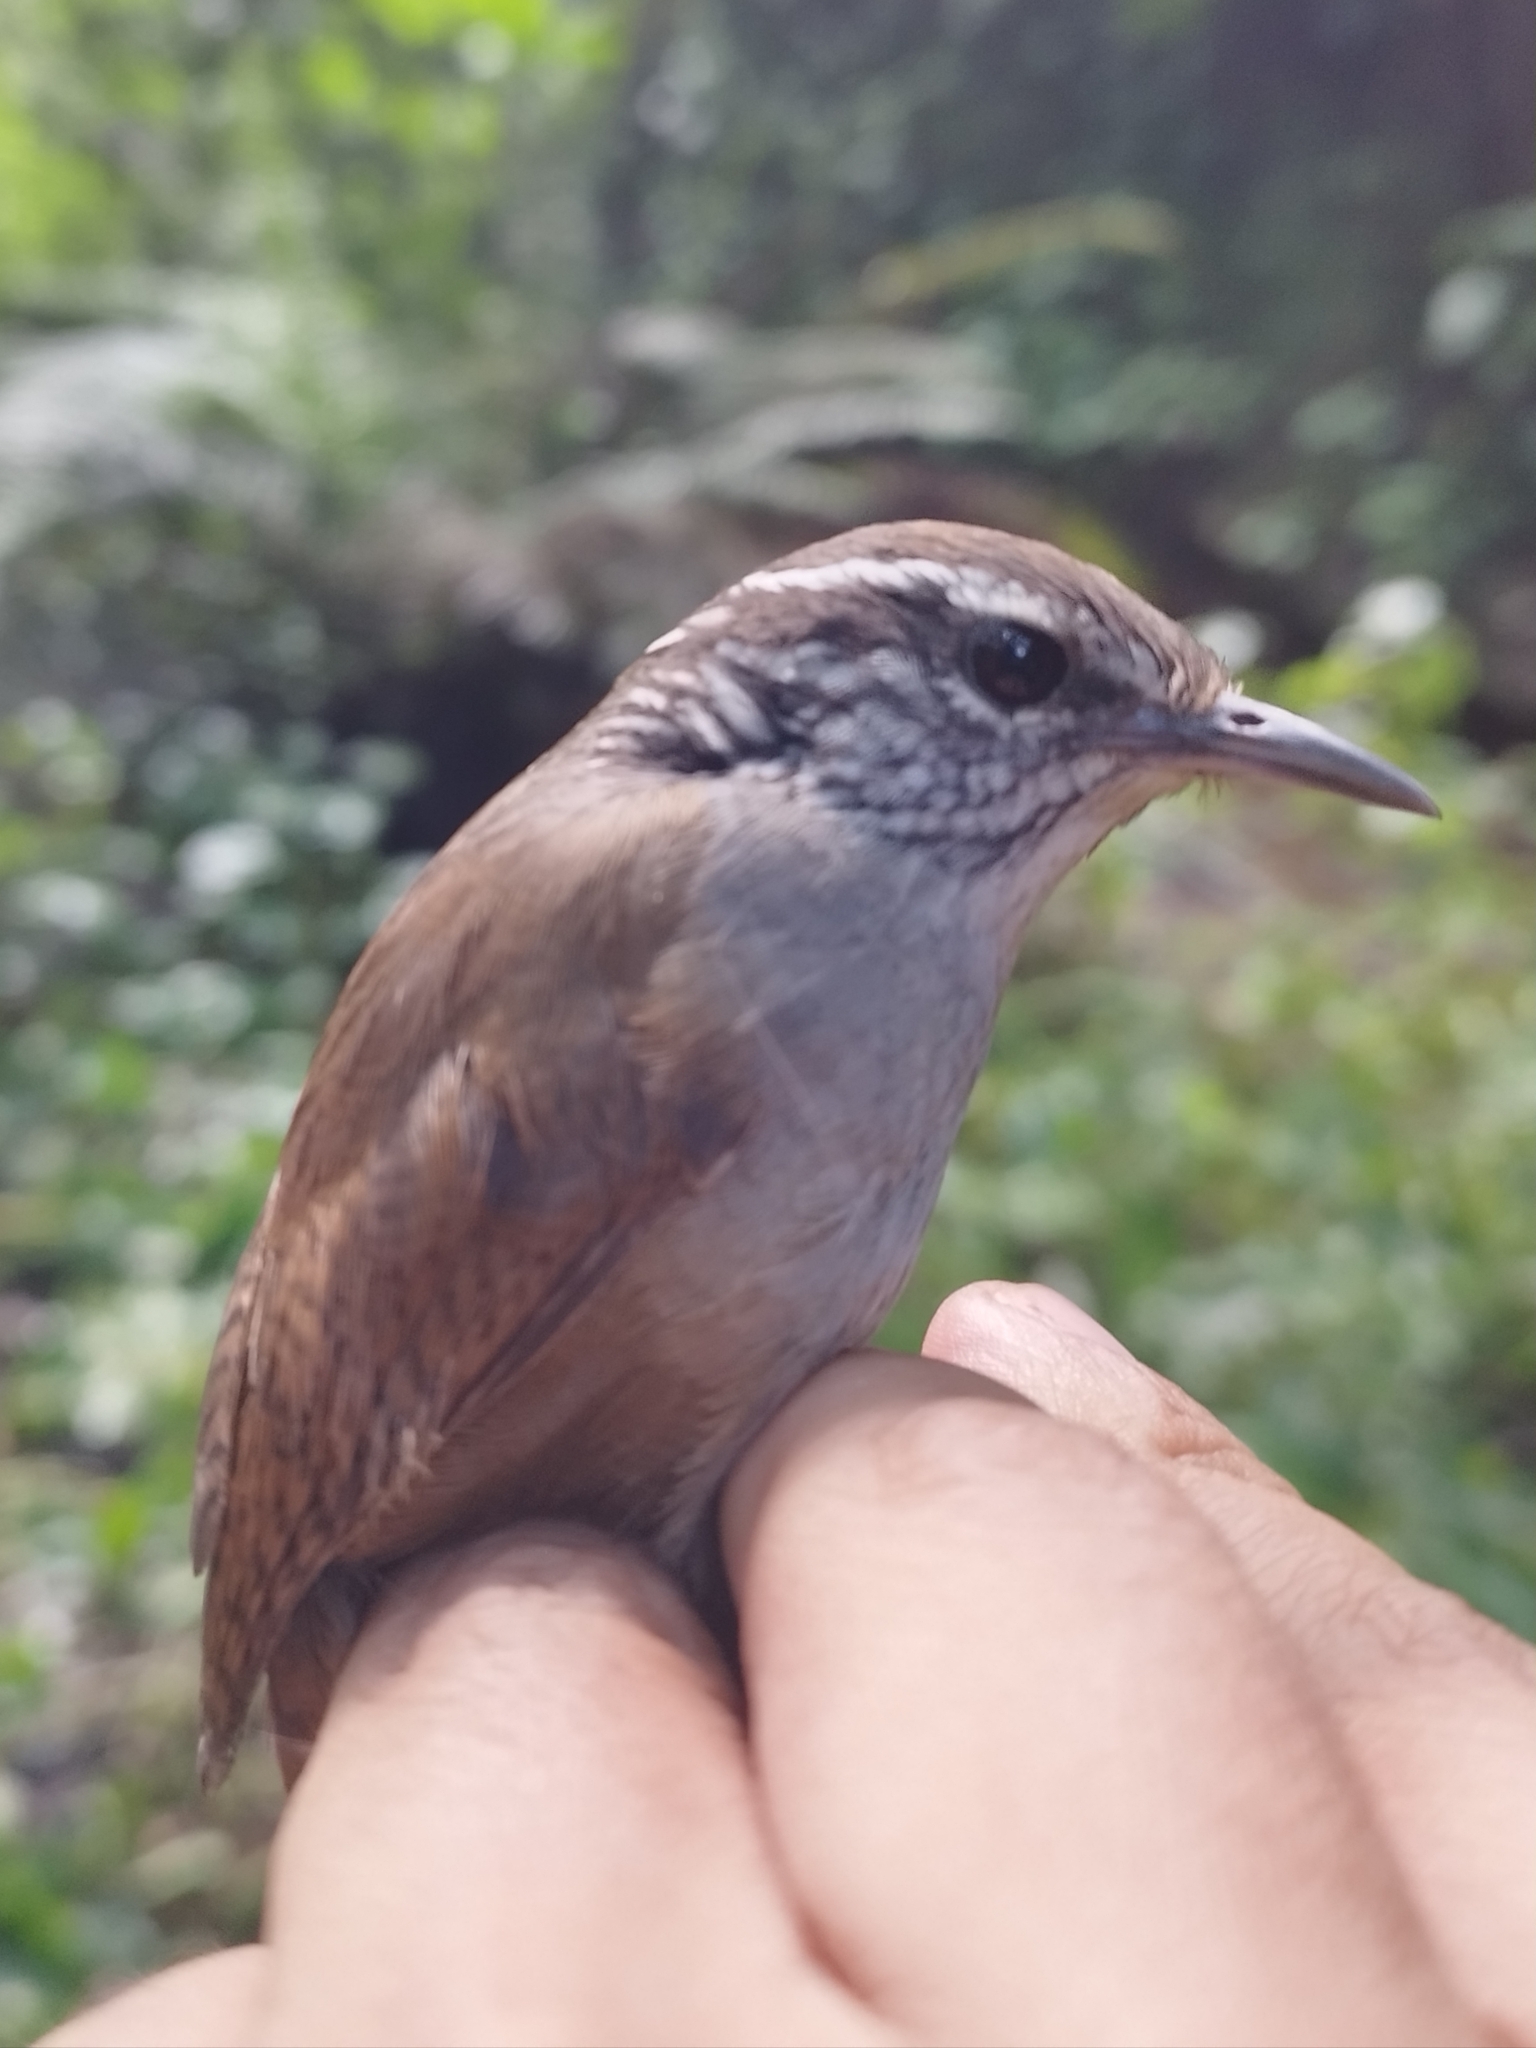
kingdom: Animalia
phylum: Chordata
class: Aves
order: Passeriformes
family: Troglodytidae
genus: Henicorhina
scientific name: Henicorhina leucophrys
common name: Gray-breasted wood-wren
